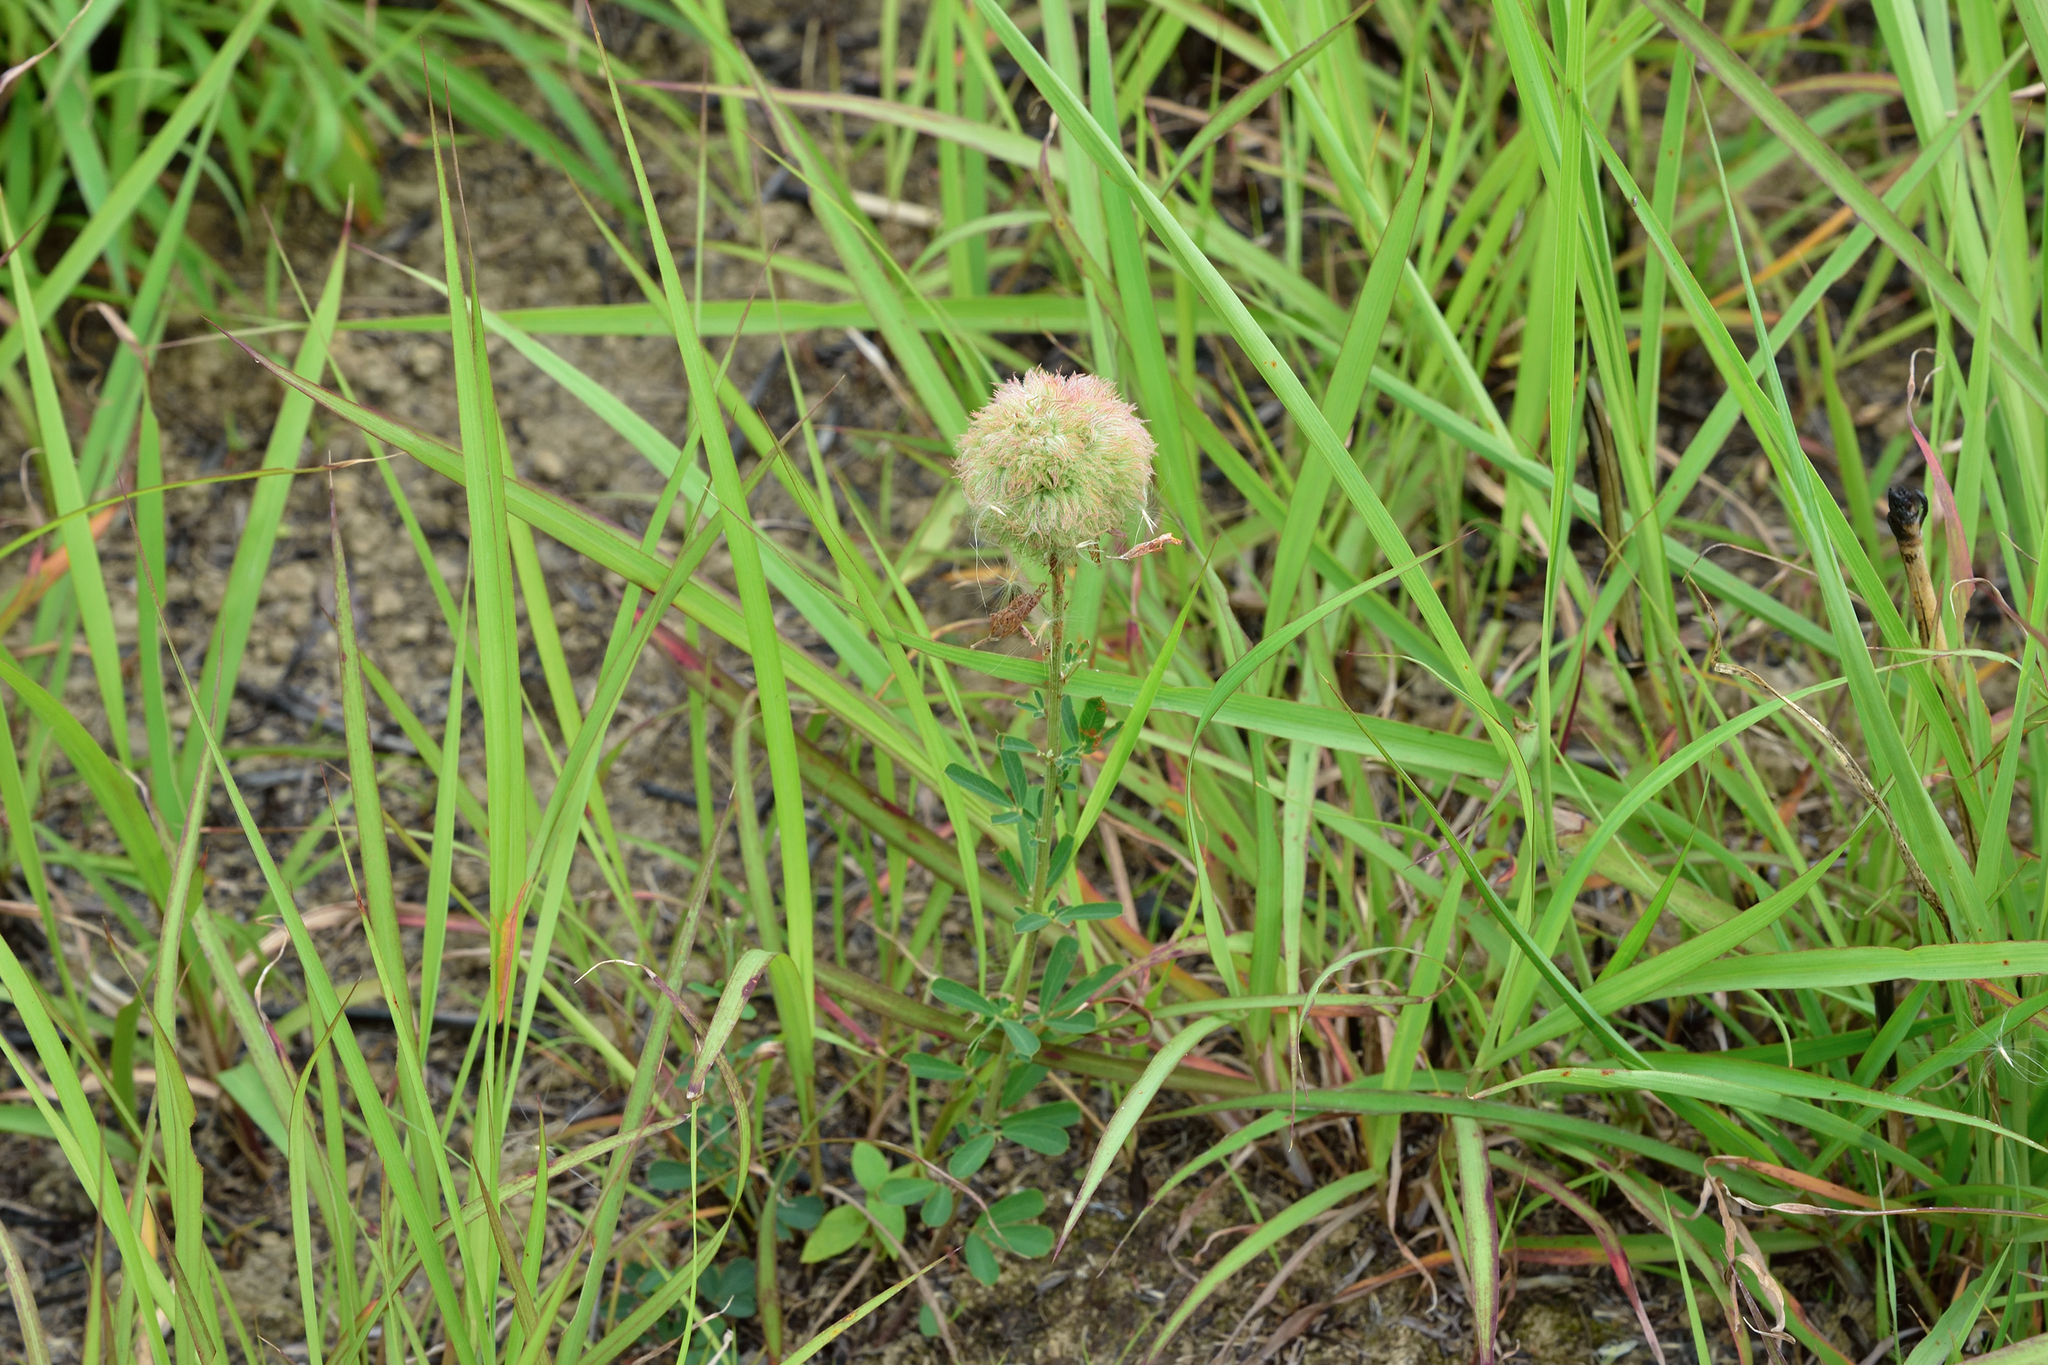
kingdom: Plantae
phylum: Tracheophyta
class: Magnoliopsida
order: Fabales
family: Fabaceae
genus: Lespedeza
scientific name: Lespedeza cuneata
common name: Chinese bush-clover
